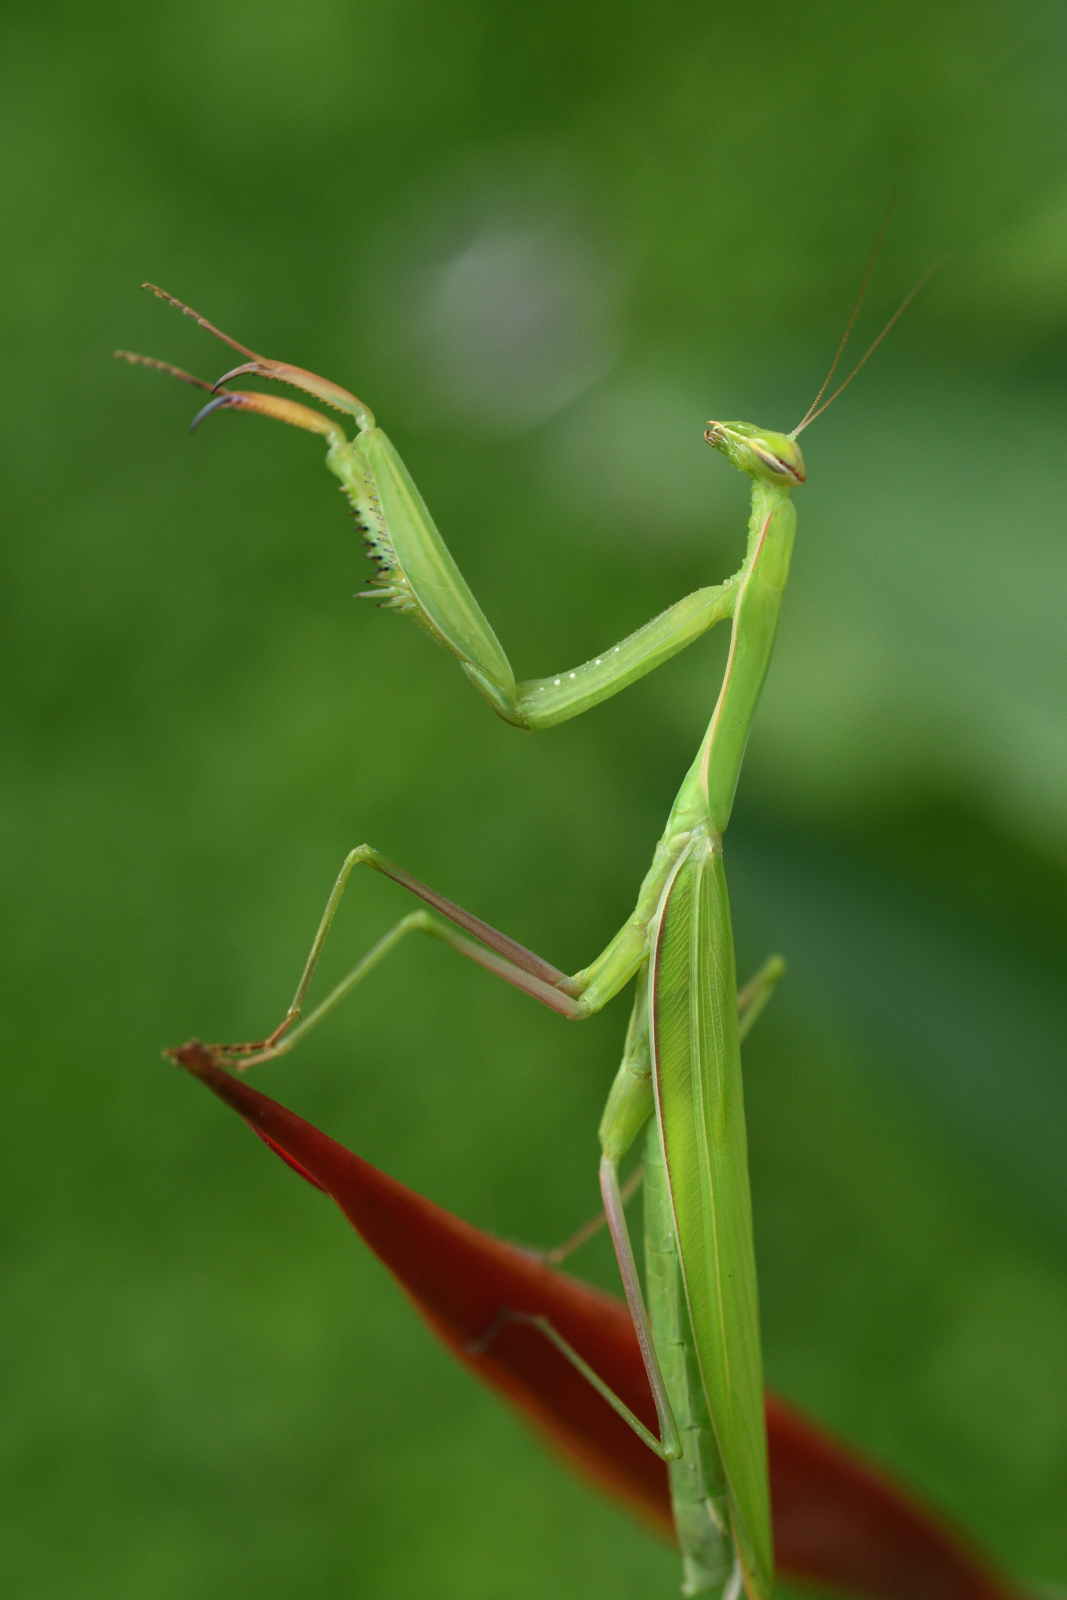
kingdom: Animalia
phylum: Arthropoda
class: Insecta
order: Mantodea
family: Mantidae
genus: Mantis
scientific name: Mantis religiosa
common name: Praying mantis
